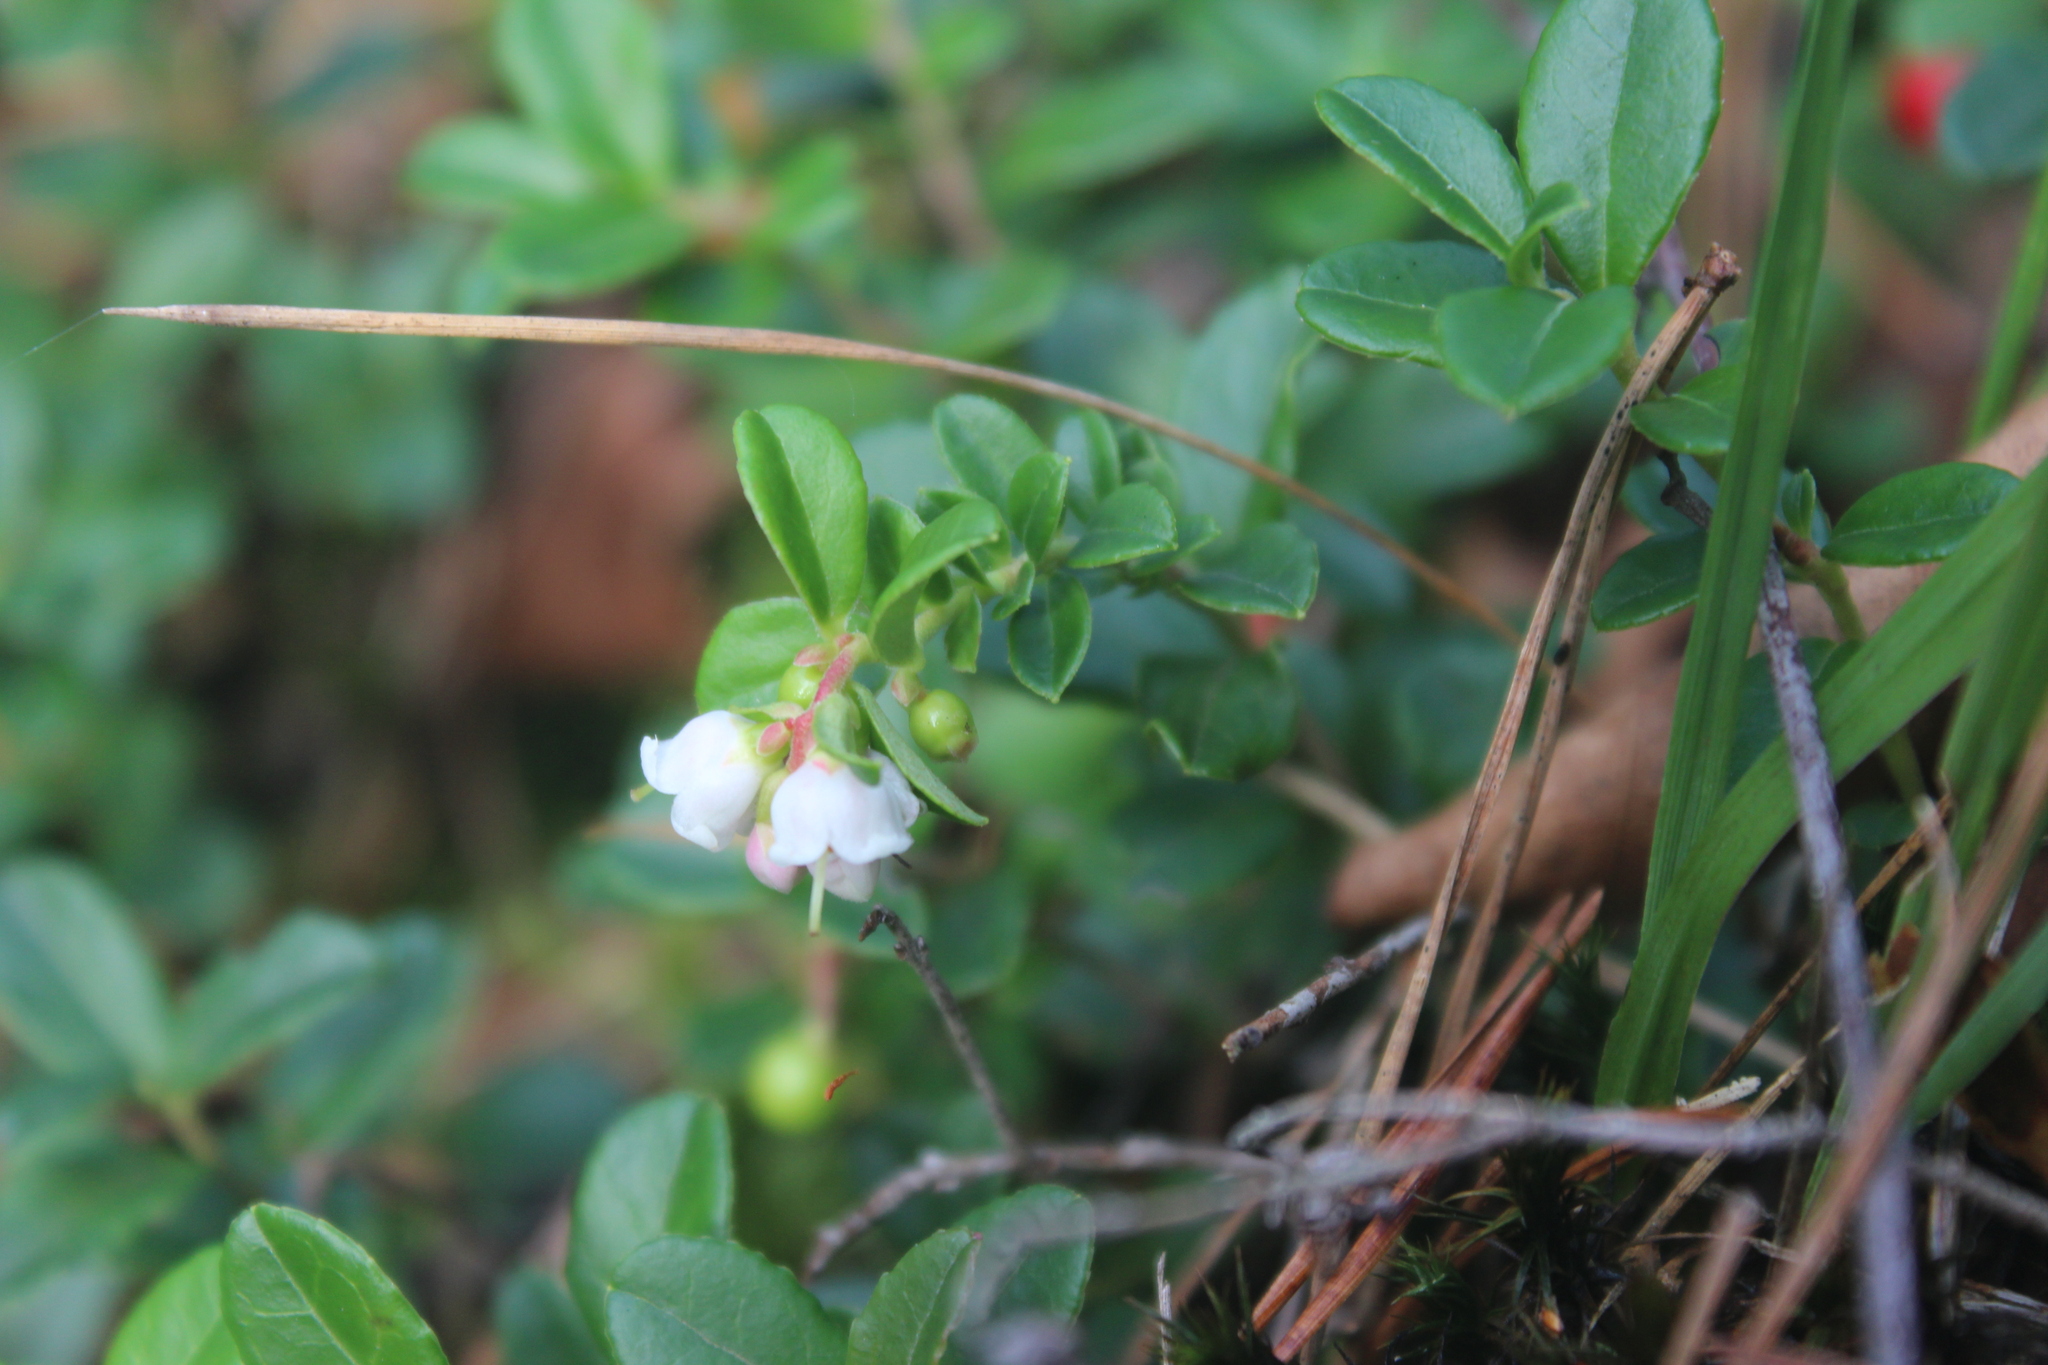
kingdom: Plantae
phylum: Tracheophyta
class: Magnoliopsida
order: Ericales
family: Ericaceae
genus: Vaccinium
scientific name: Vaccinium vitis-idaea
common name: Cowberry
